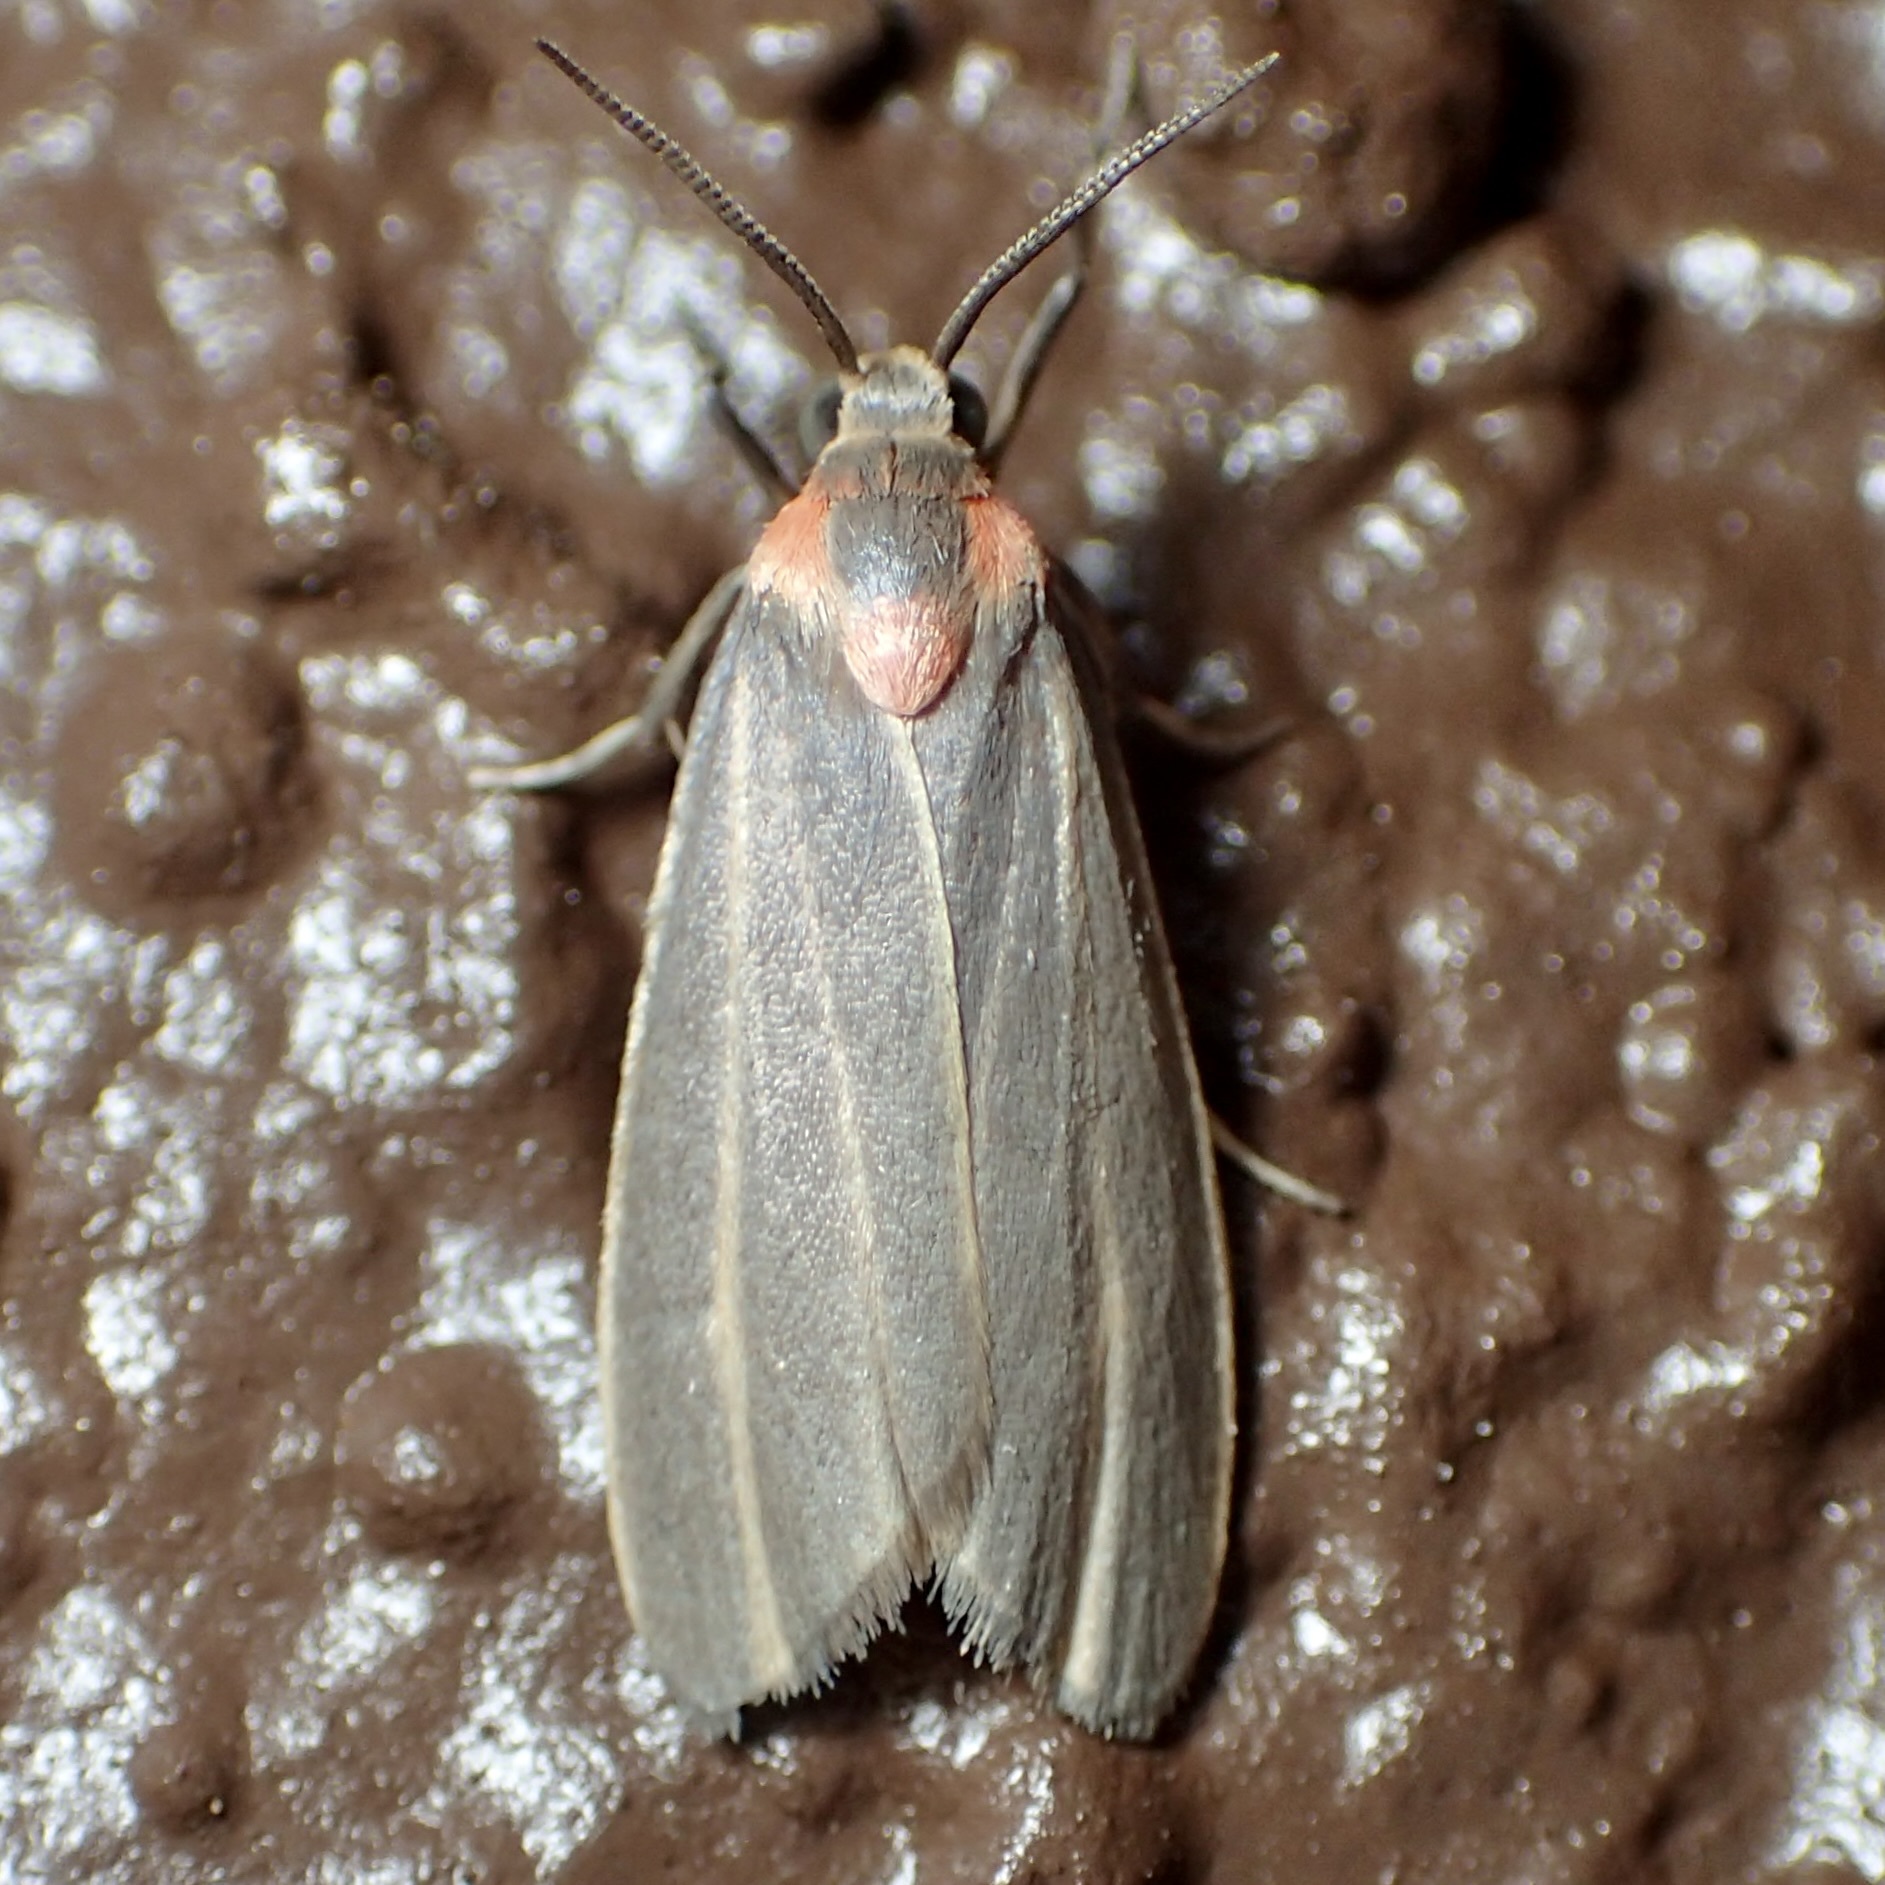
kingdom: Animalia
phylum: Arthropoda
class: Insecta
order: Lepidoptera
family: Erebidae
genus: Haematomis
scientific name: Haematomis uniformis
